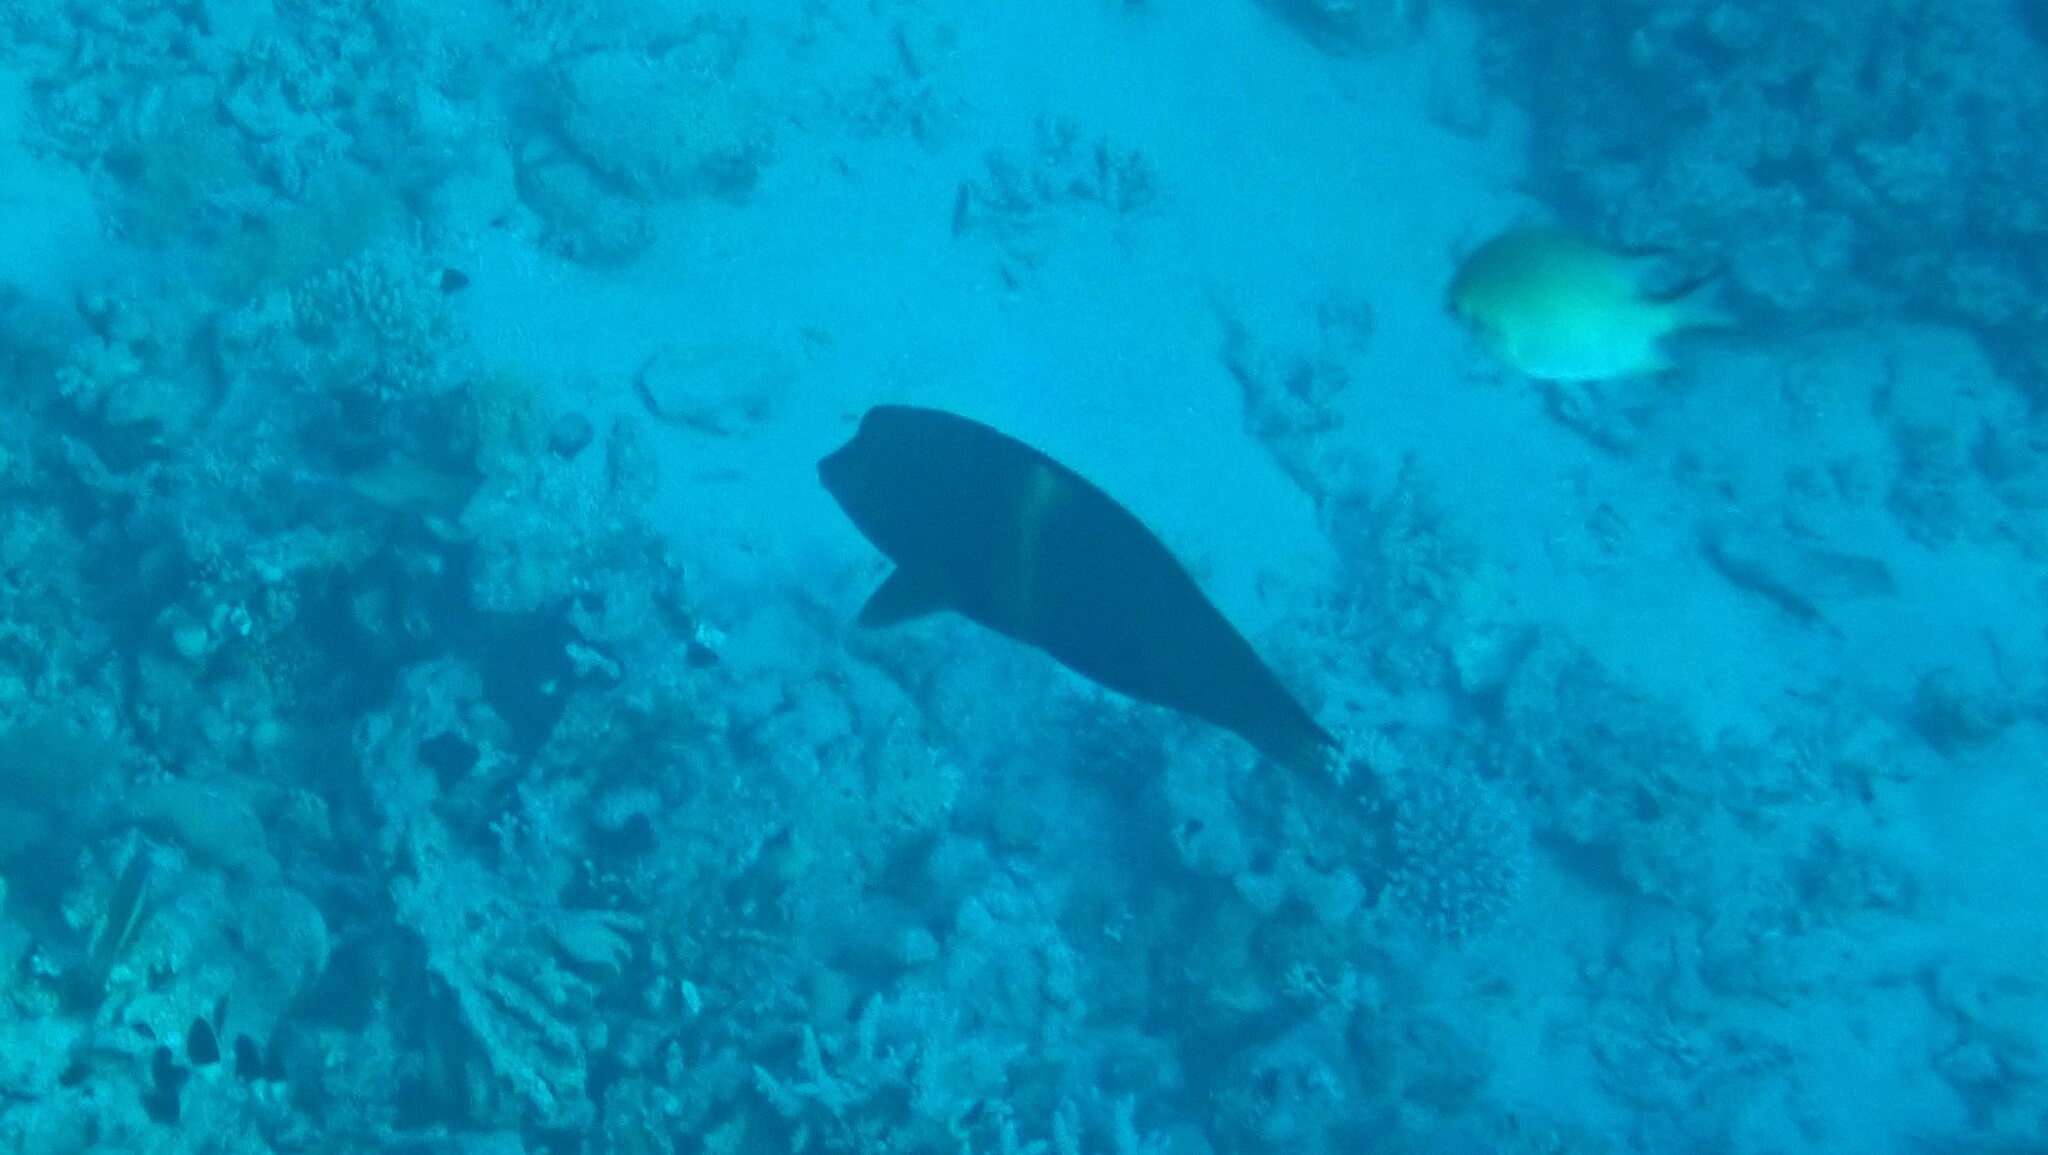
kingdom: Animalia
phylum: Chordata
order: Perciformes
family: Labridae
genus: Coris
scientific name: Coris aygula
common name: Clown coris
